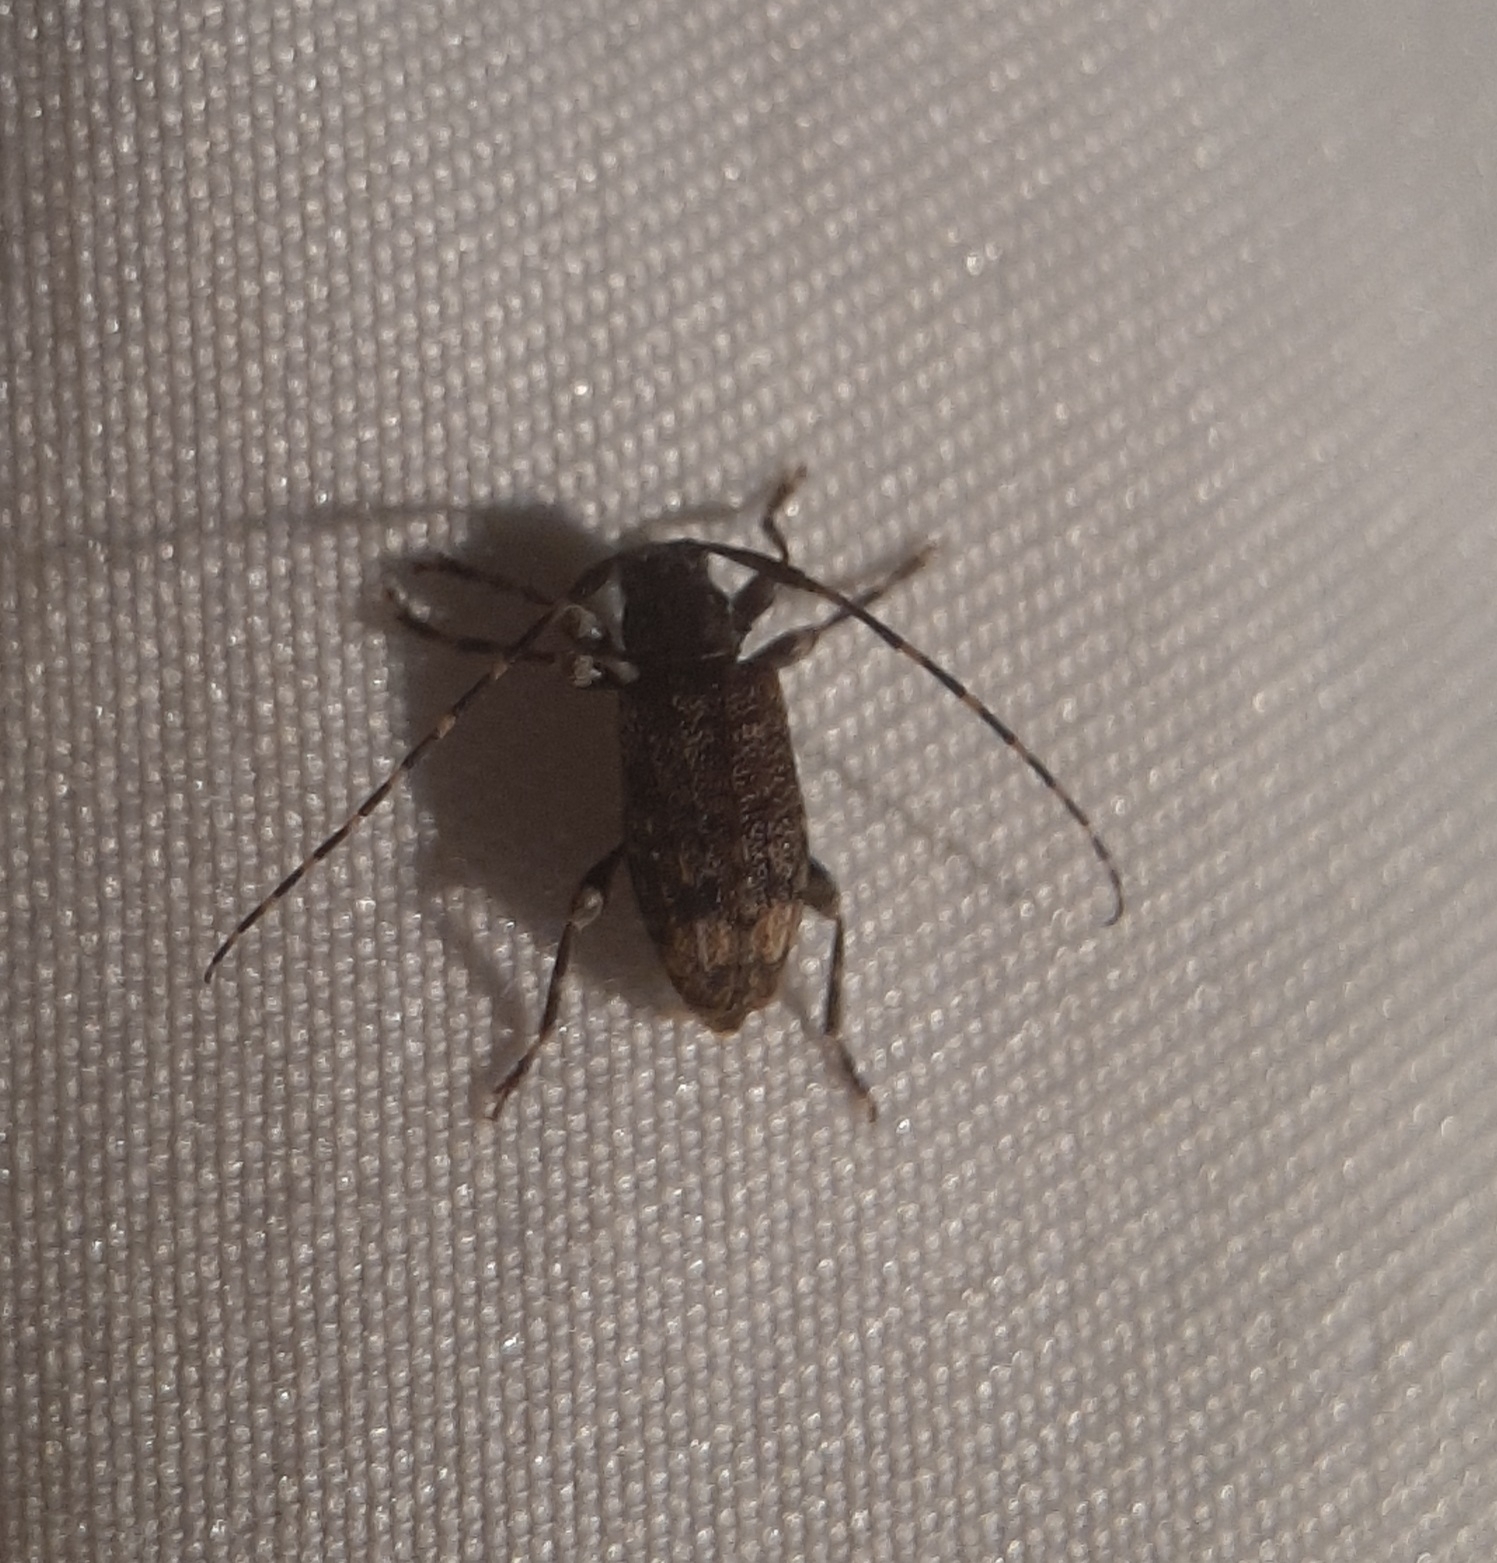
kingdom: Animalia
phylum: Arthropoda
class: Insecta
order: Coleoptera
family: Cerambycidae
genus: Astyleiopus
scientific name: Astyleiopus variegatus
